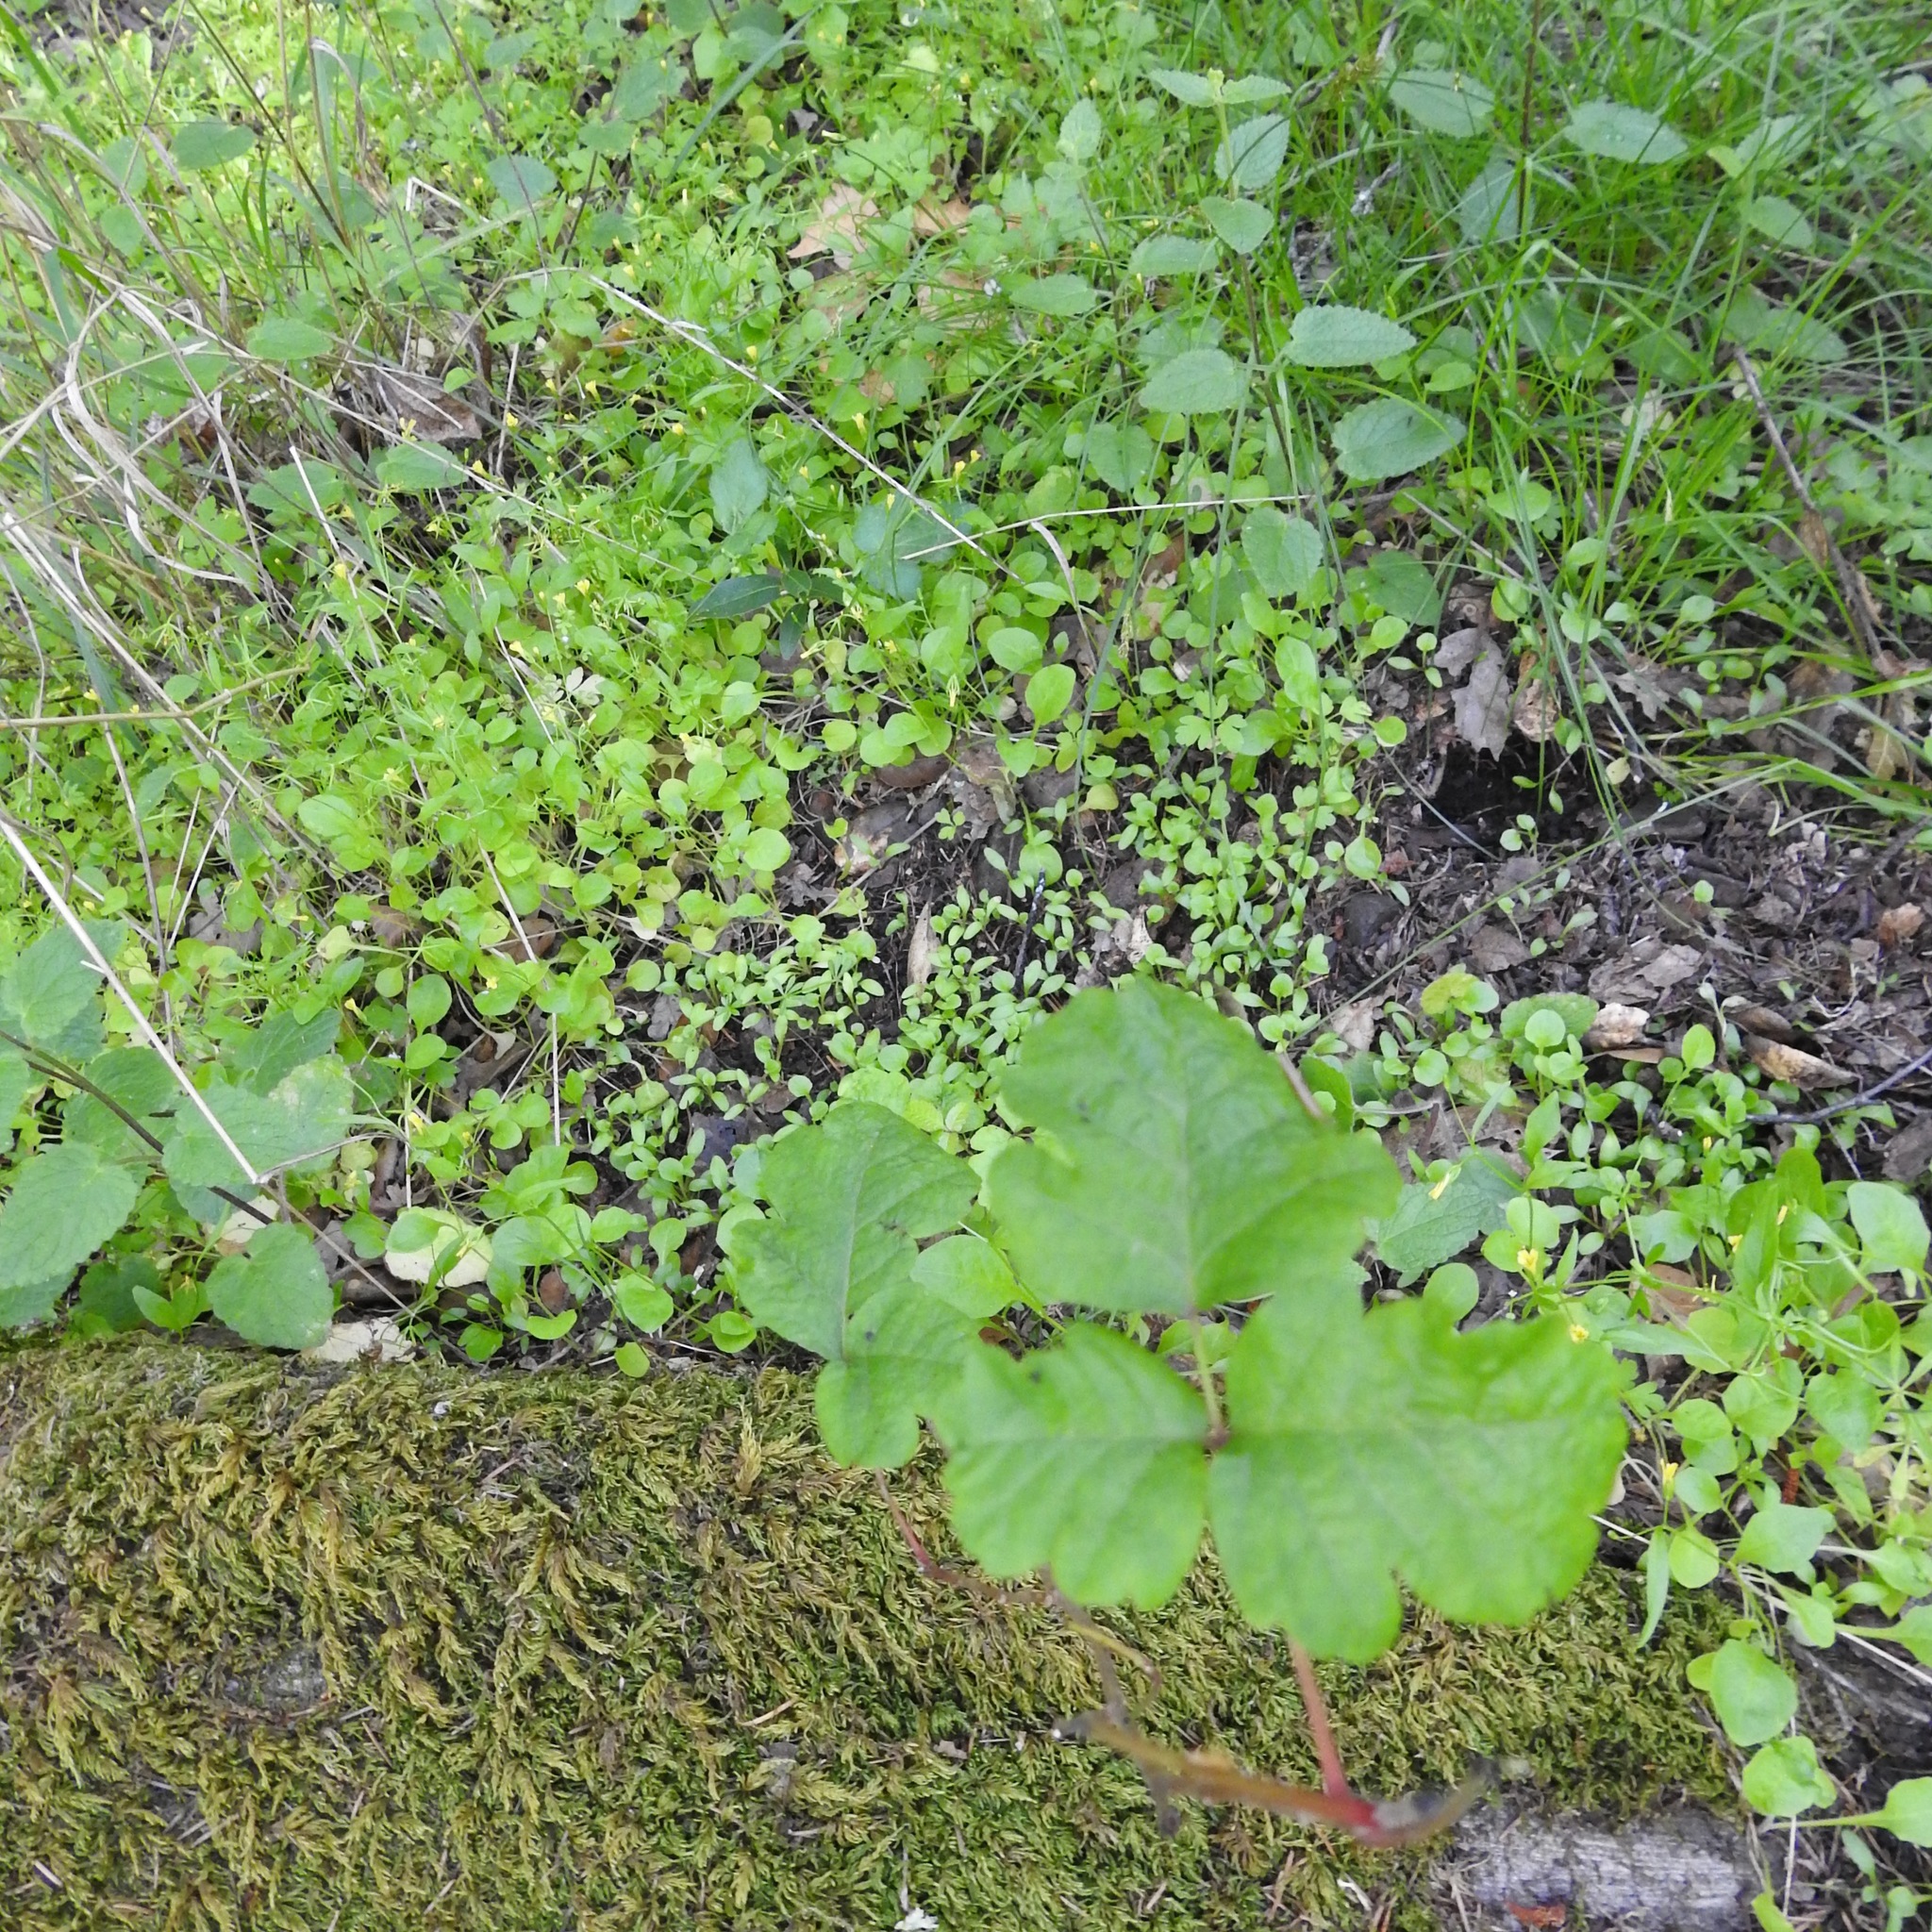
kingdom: Plantae
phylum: Tracheophyta
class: Magnoliopsida
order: Sapindales
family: Anacardiaceae
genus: Toxicodendron
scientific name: Toxicodendron diversilobum
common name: Pacific poison-oak
